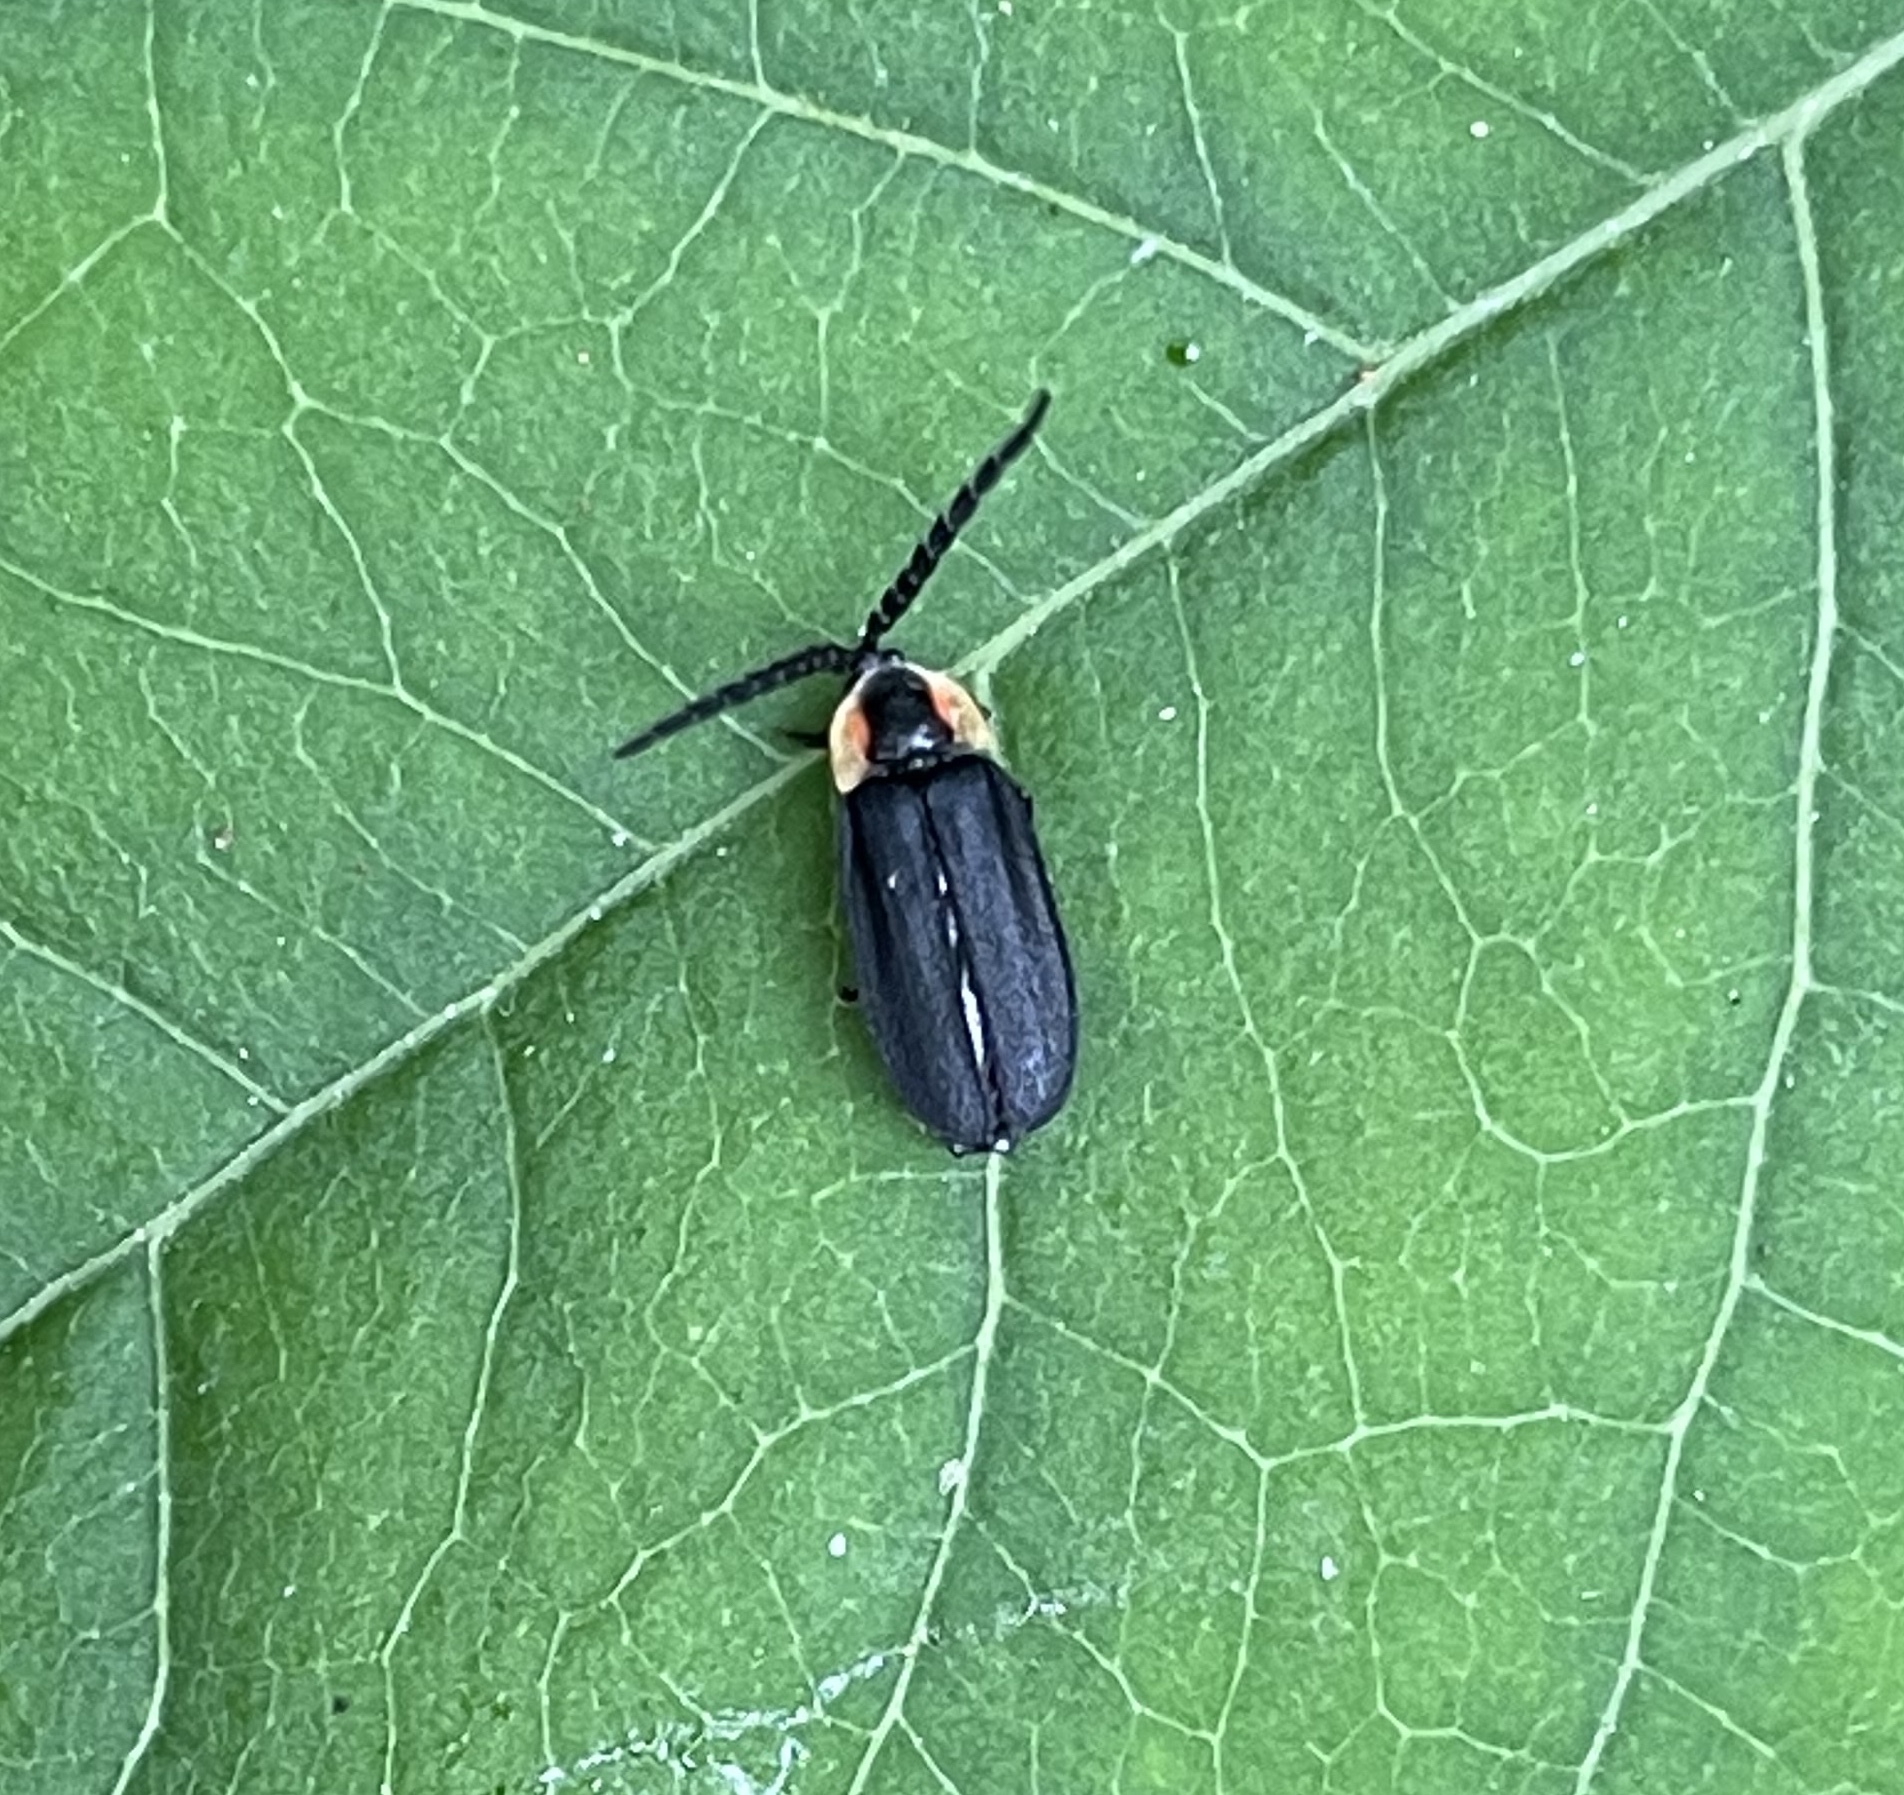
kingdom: Animalia
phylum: Arthropoda
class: Insecta
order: Coleoptera
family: Lampyridae
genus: Lucidota
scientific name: Lucidota atra
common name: Black firefly
